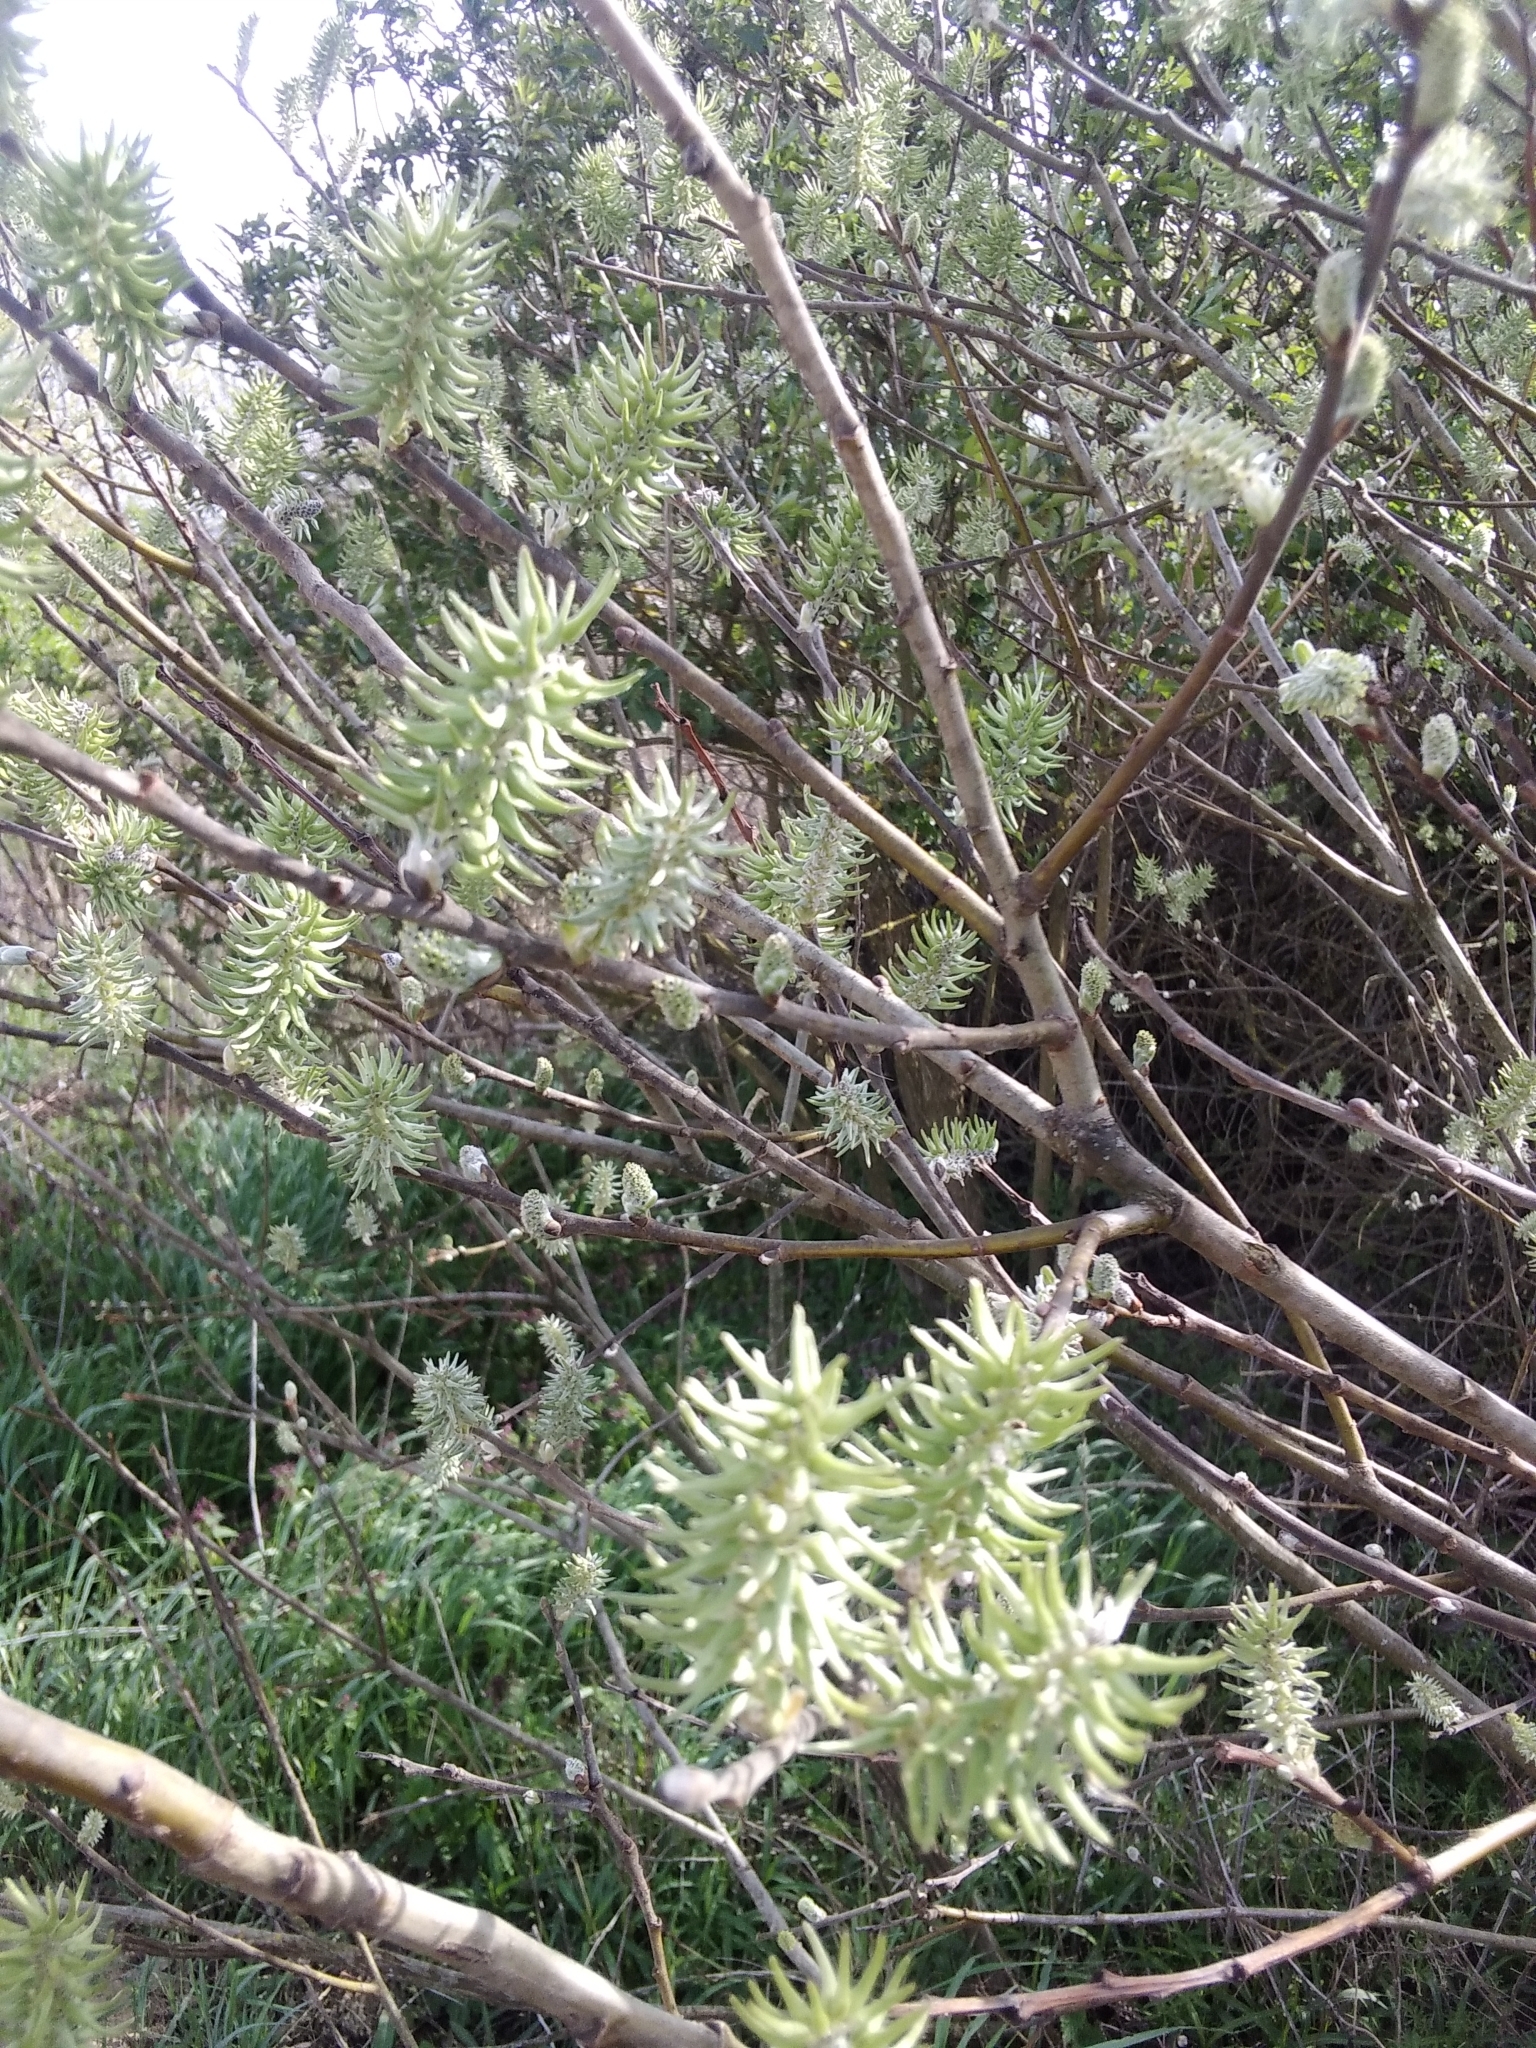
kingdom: Plantae
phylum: Tracheophyta
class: Magnoliopsida
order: Malpighiales
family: Salicaceae
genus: Salix
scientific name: Salix cinerea
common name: Common sallow
